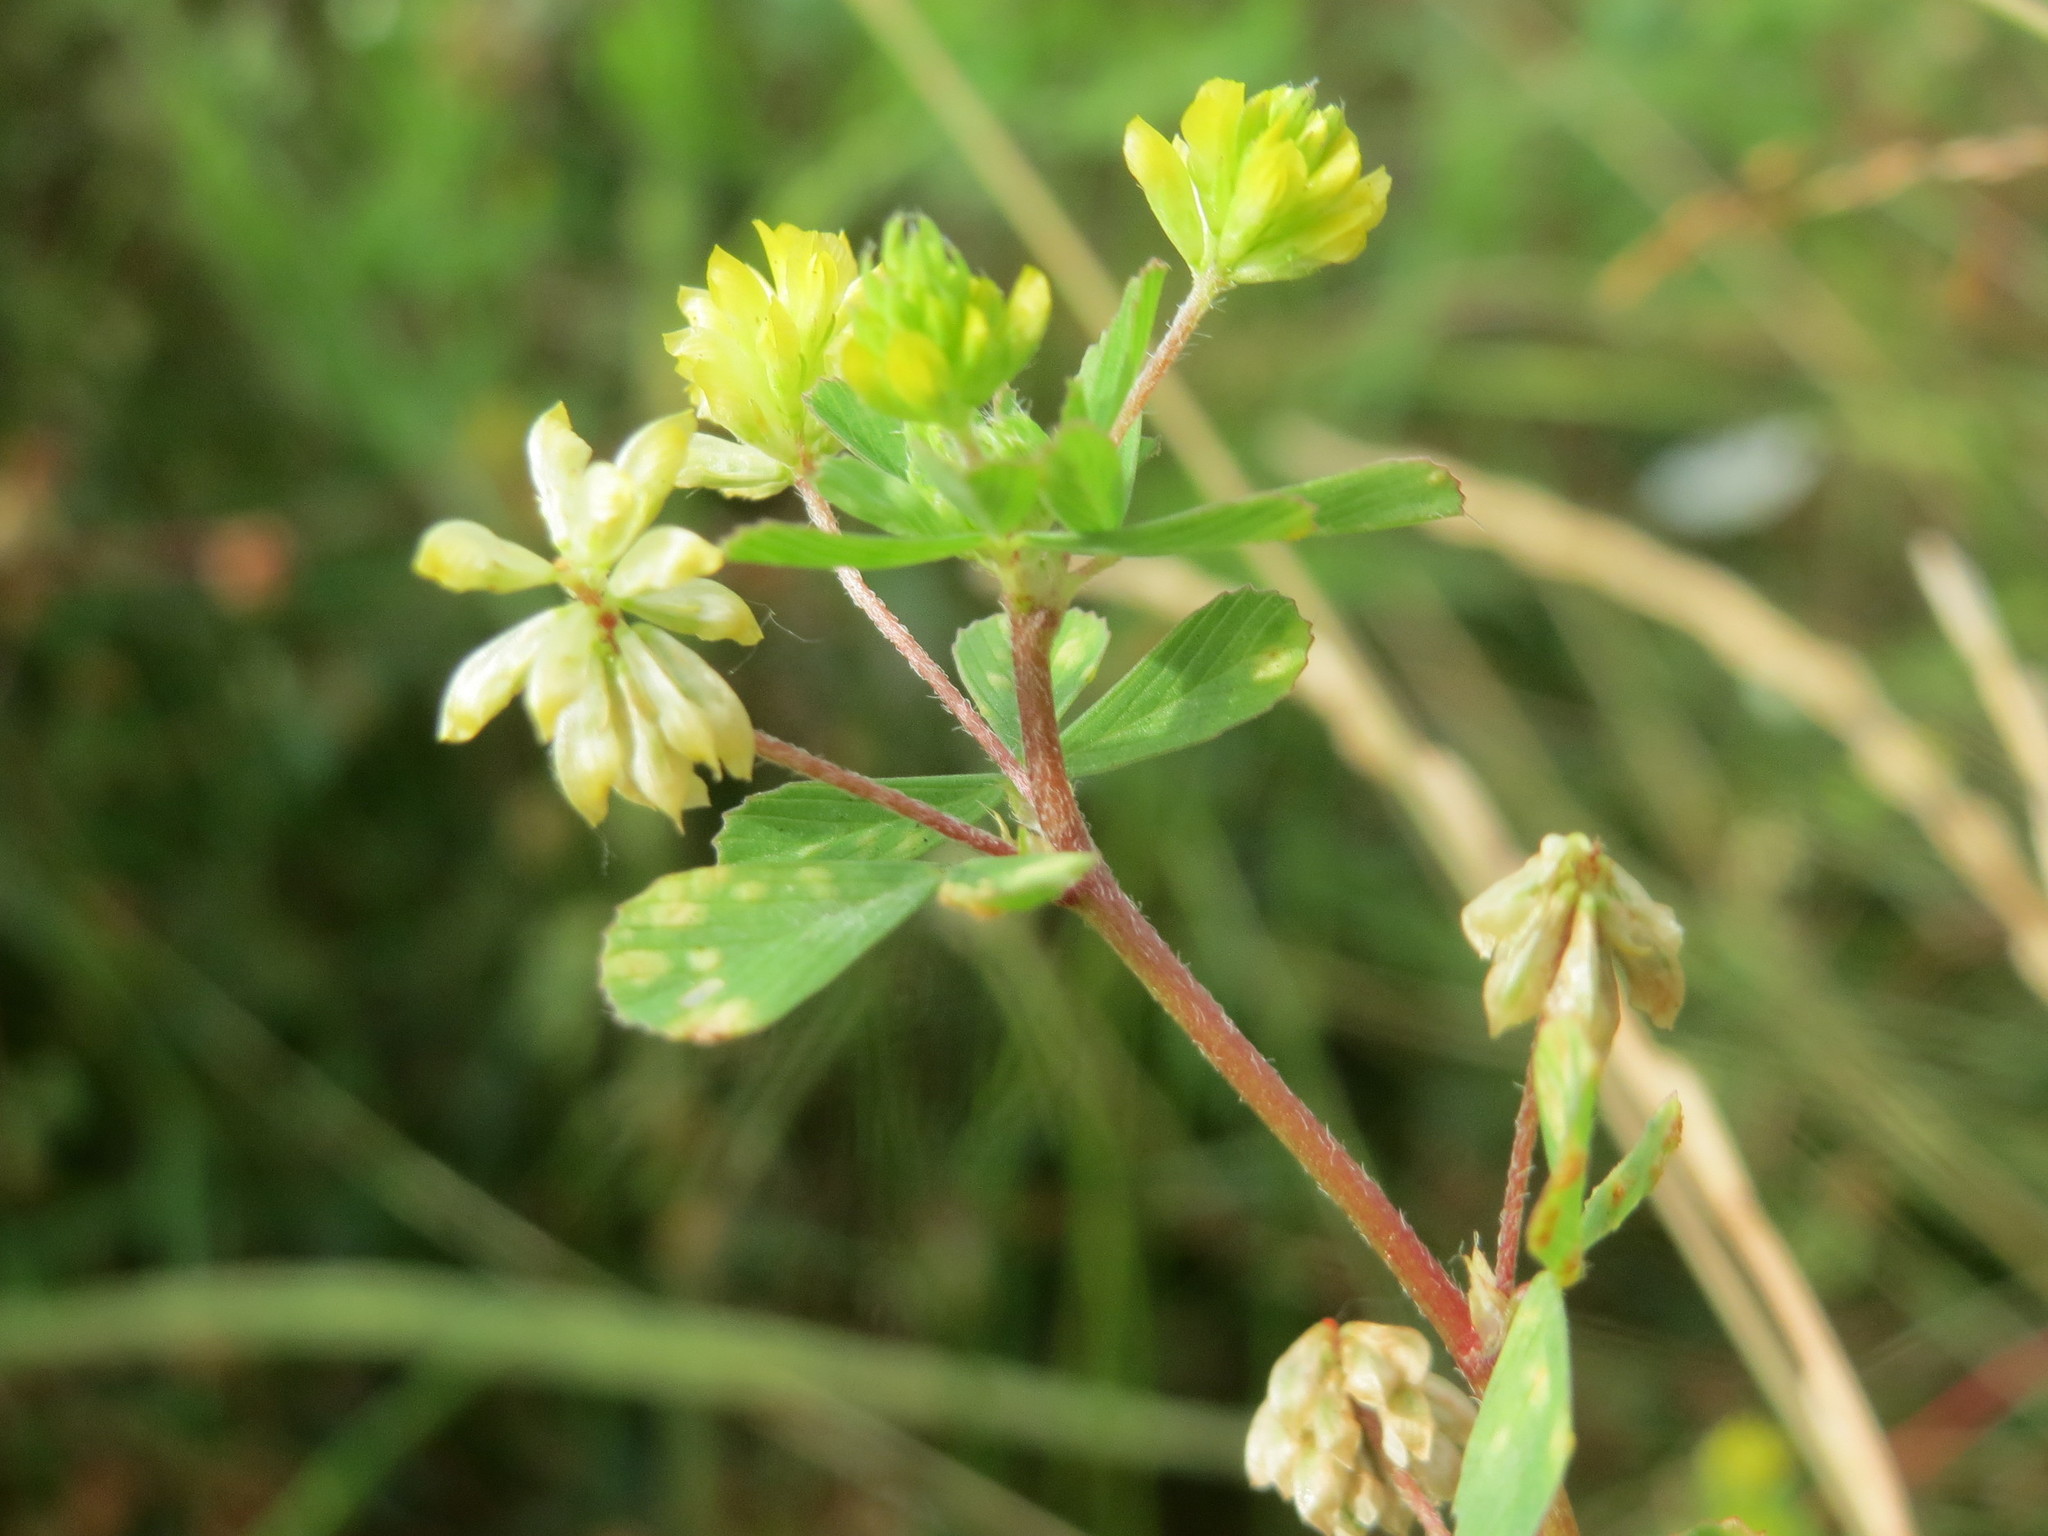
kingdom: Plantae
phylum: Tracheophyta
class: Magnoliopsida
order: Fabales
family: Fabaceae
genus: Trifolium
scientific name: Trifolium dubium
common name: Suckling clover
